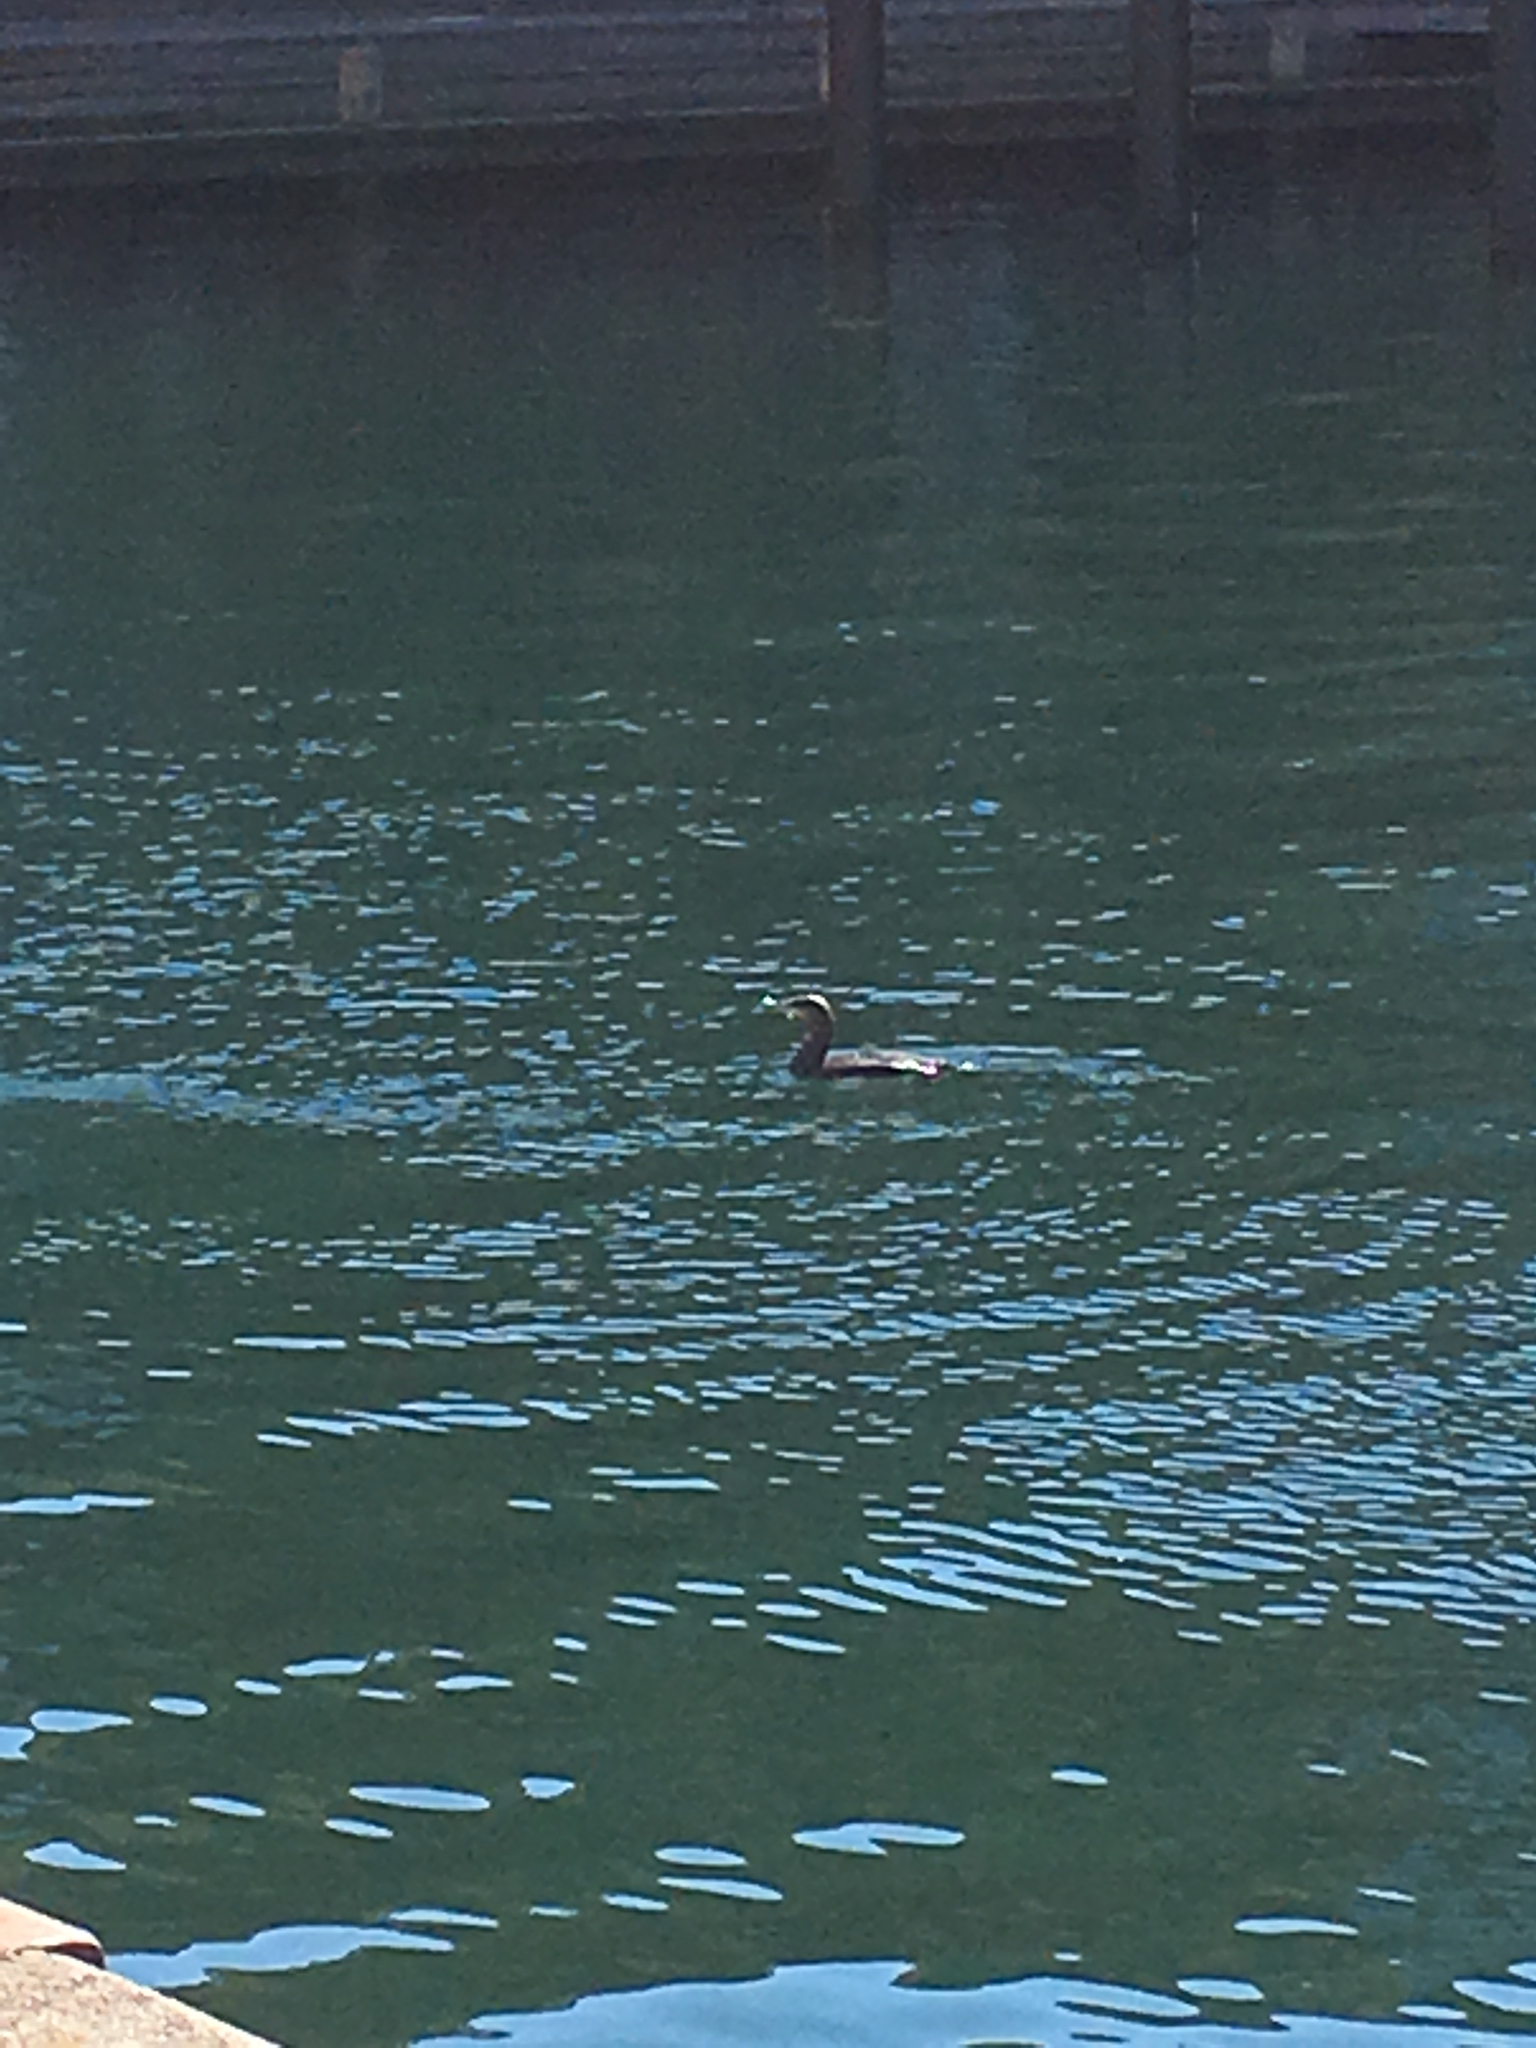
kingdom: Animalia
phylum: Chordata
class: Aves
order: Suliformes
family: Phalacrocoracidae
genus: Phalacrocorax
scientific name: Phalacrocorax carbo
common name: Great cormorant
